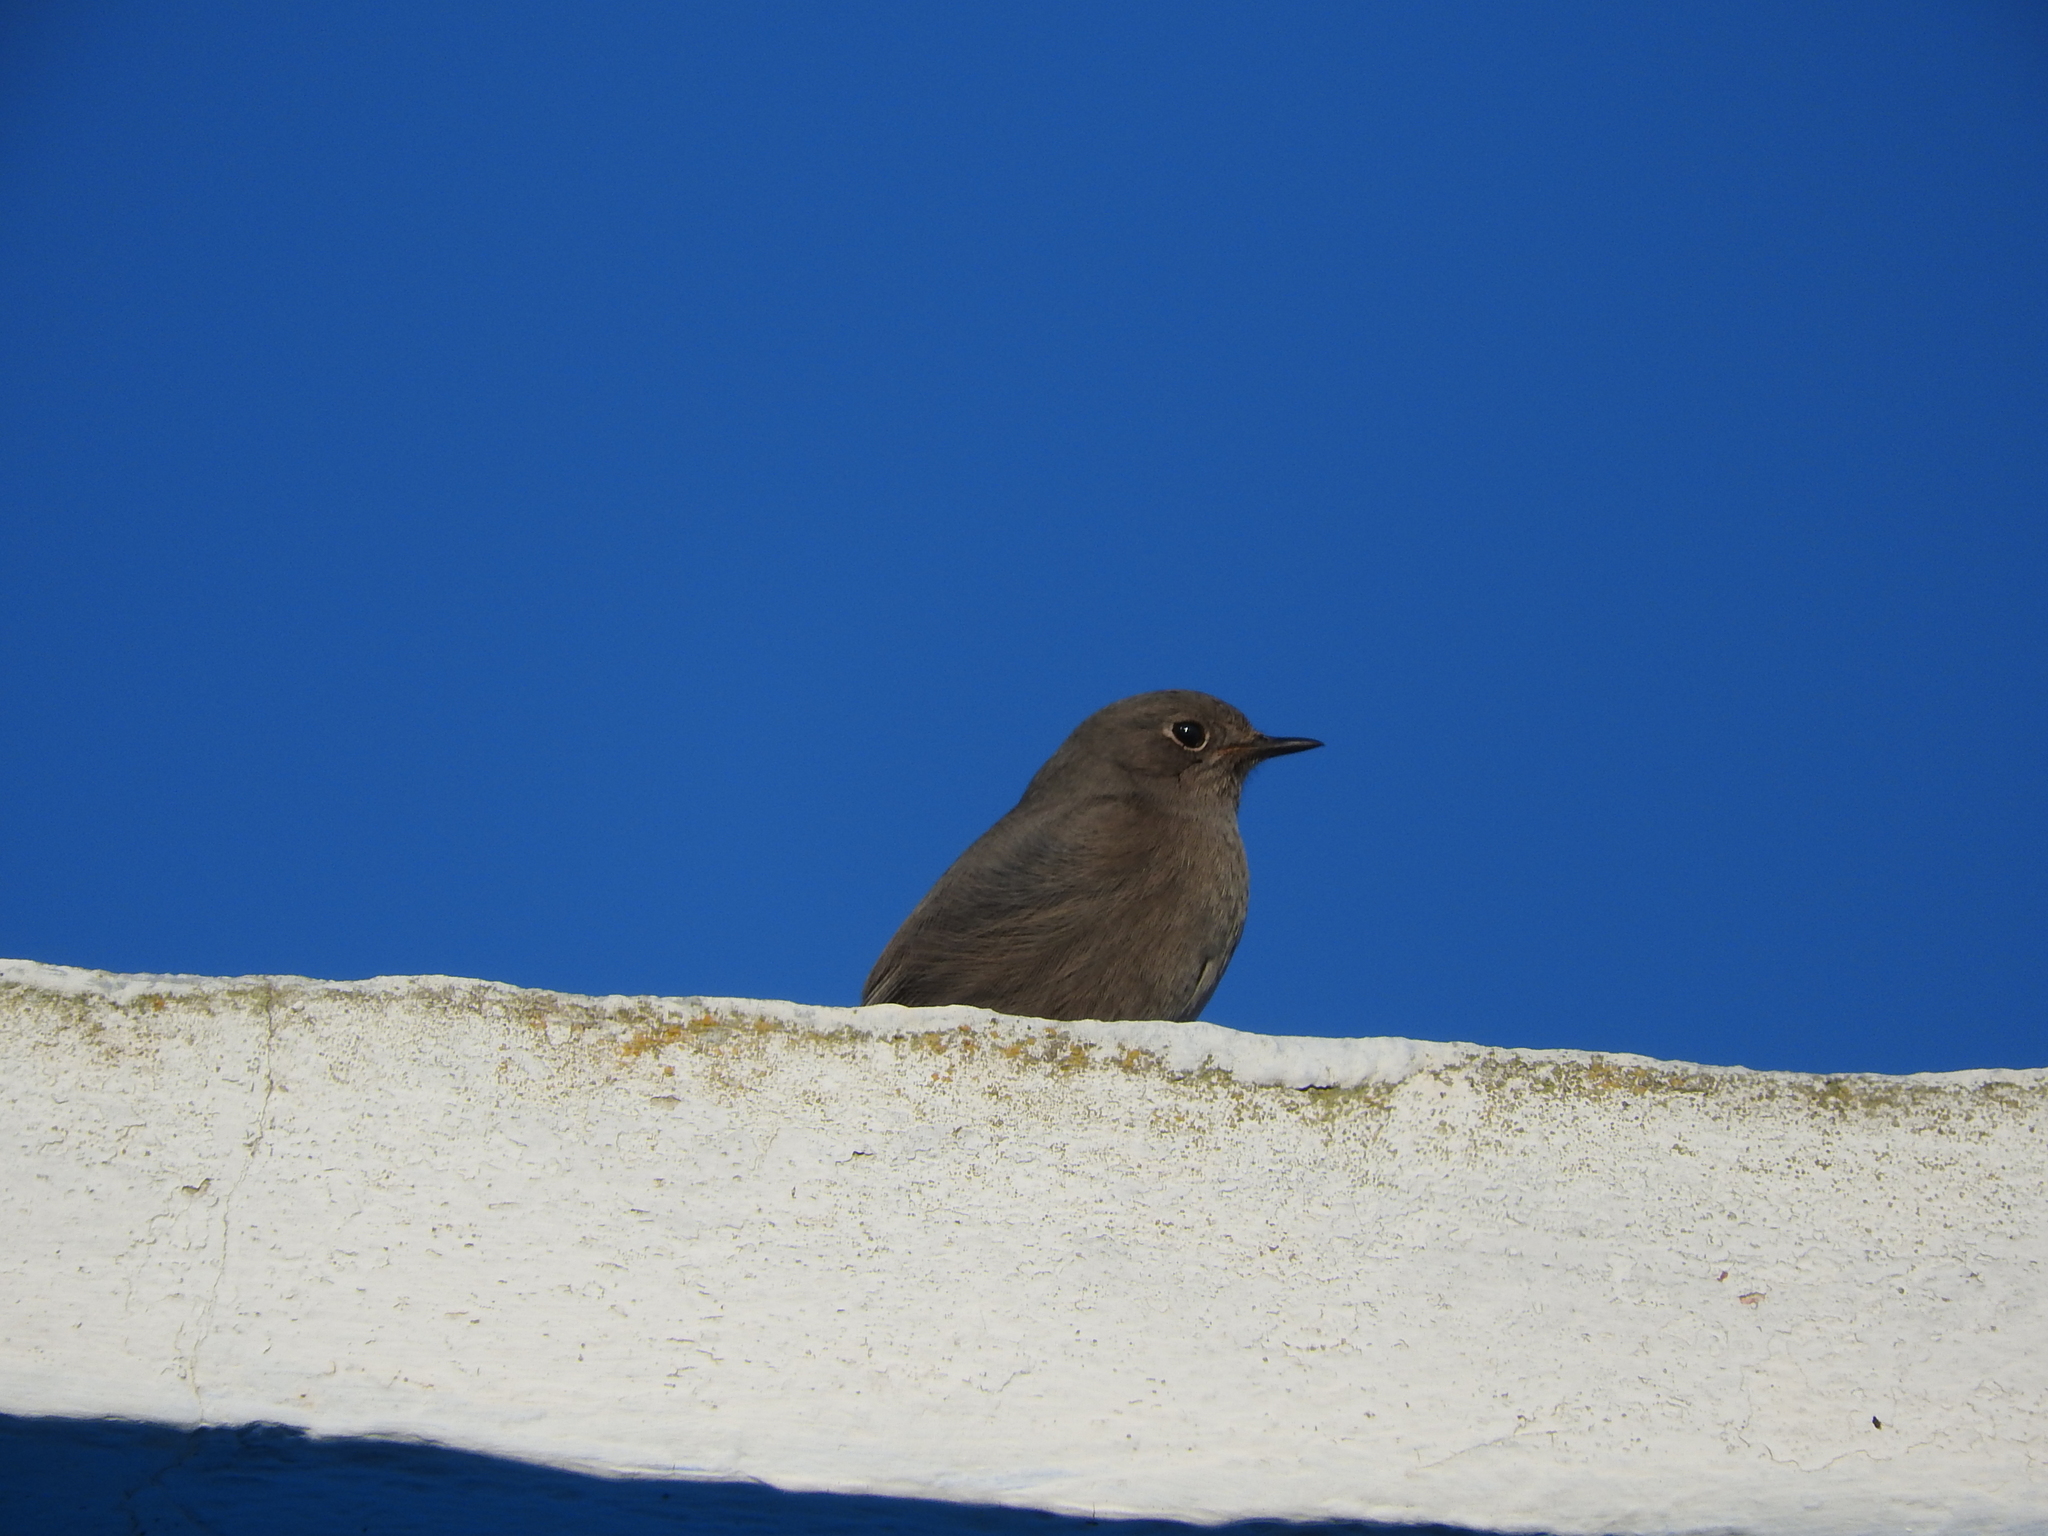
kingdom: Animalia
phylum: Chordata
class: Aves
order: Passeriformes
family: Muscicapidae
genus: Phoenicurus
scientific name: Phoenicurus ochruros
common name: Black redstart
